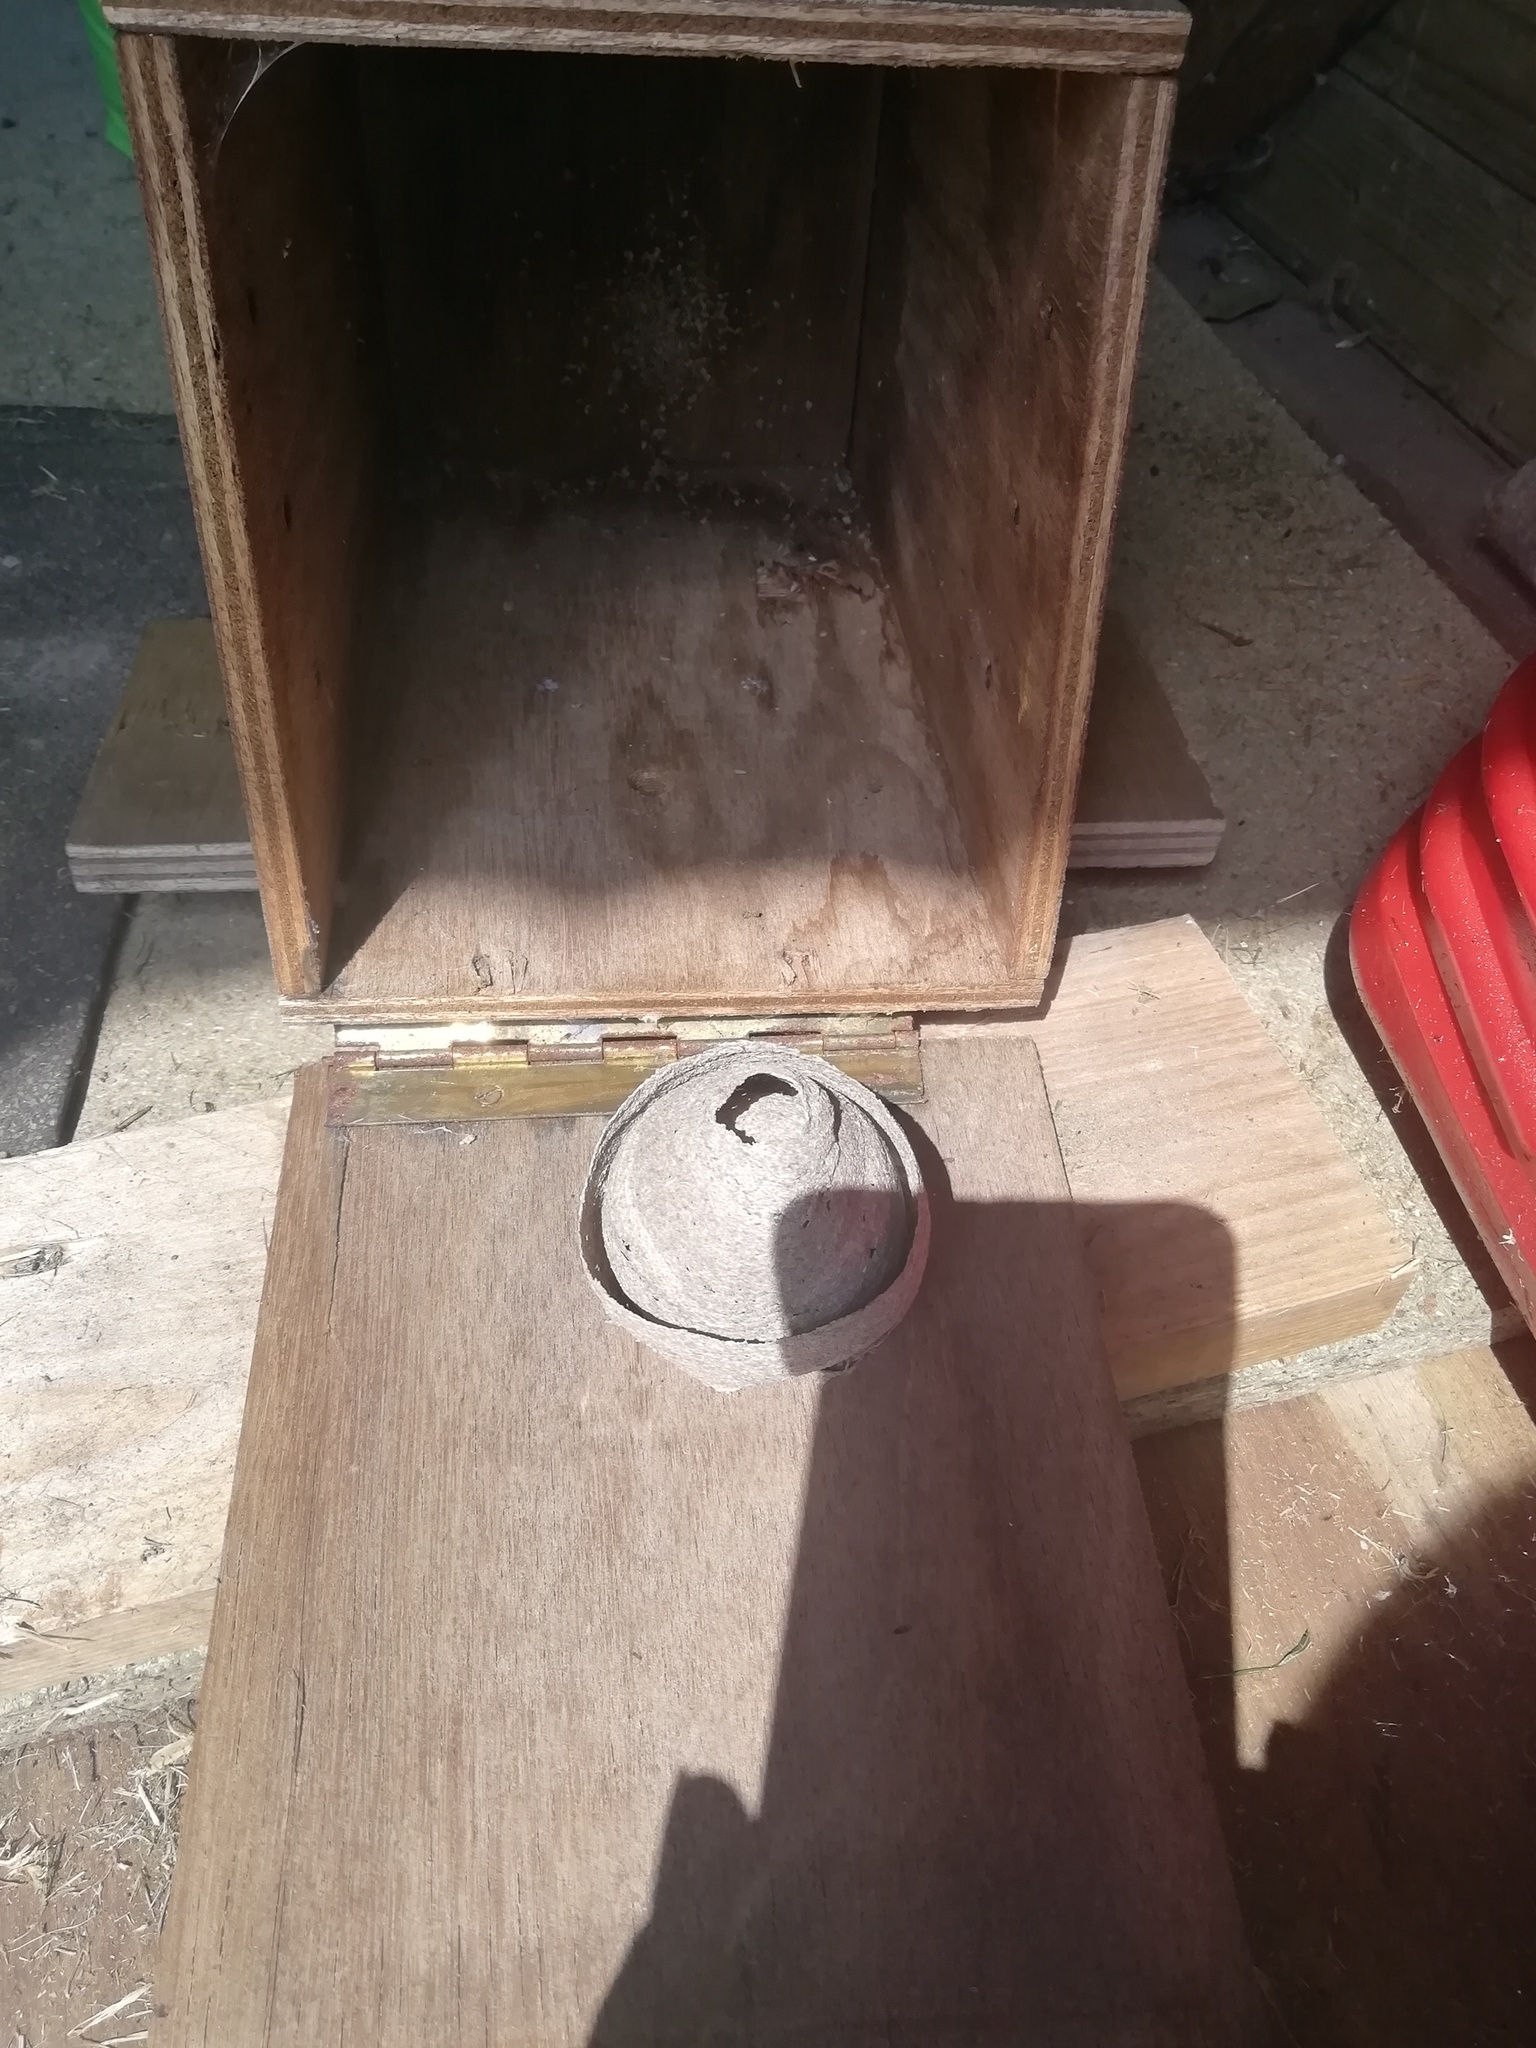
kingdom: Animalia
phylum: Arthropoda
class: Insecta
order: Hymenoptera
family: Vespidae
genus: Vespa
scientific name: Vespa velutina
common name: Asian hornet
